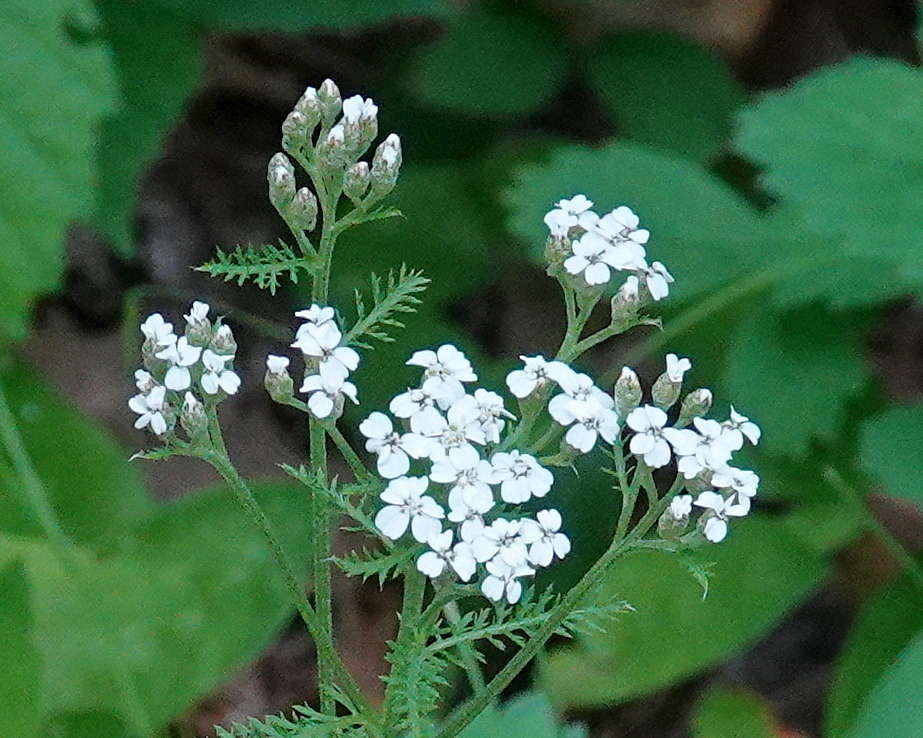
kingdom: Plantae
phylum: Tracheophyta
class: Magnoliopsida
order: Asterales
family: Asteraceae
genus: Achillea
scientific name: Achillea millefolium
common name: Yarrow
